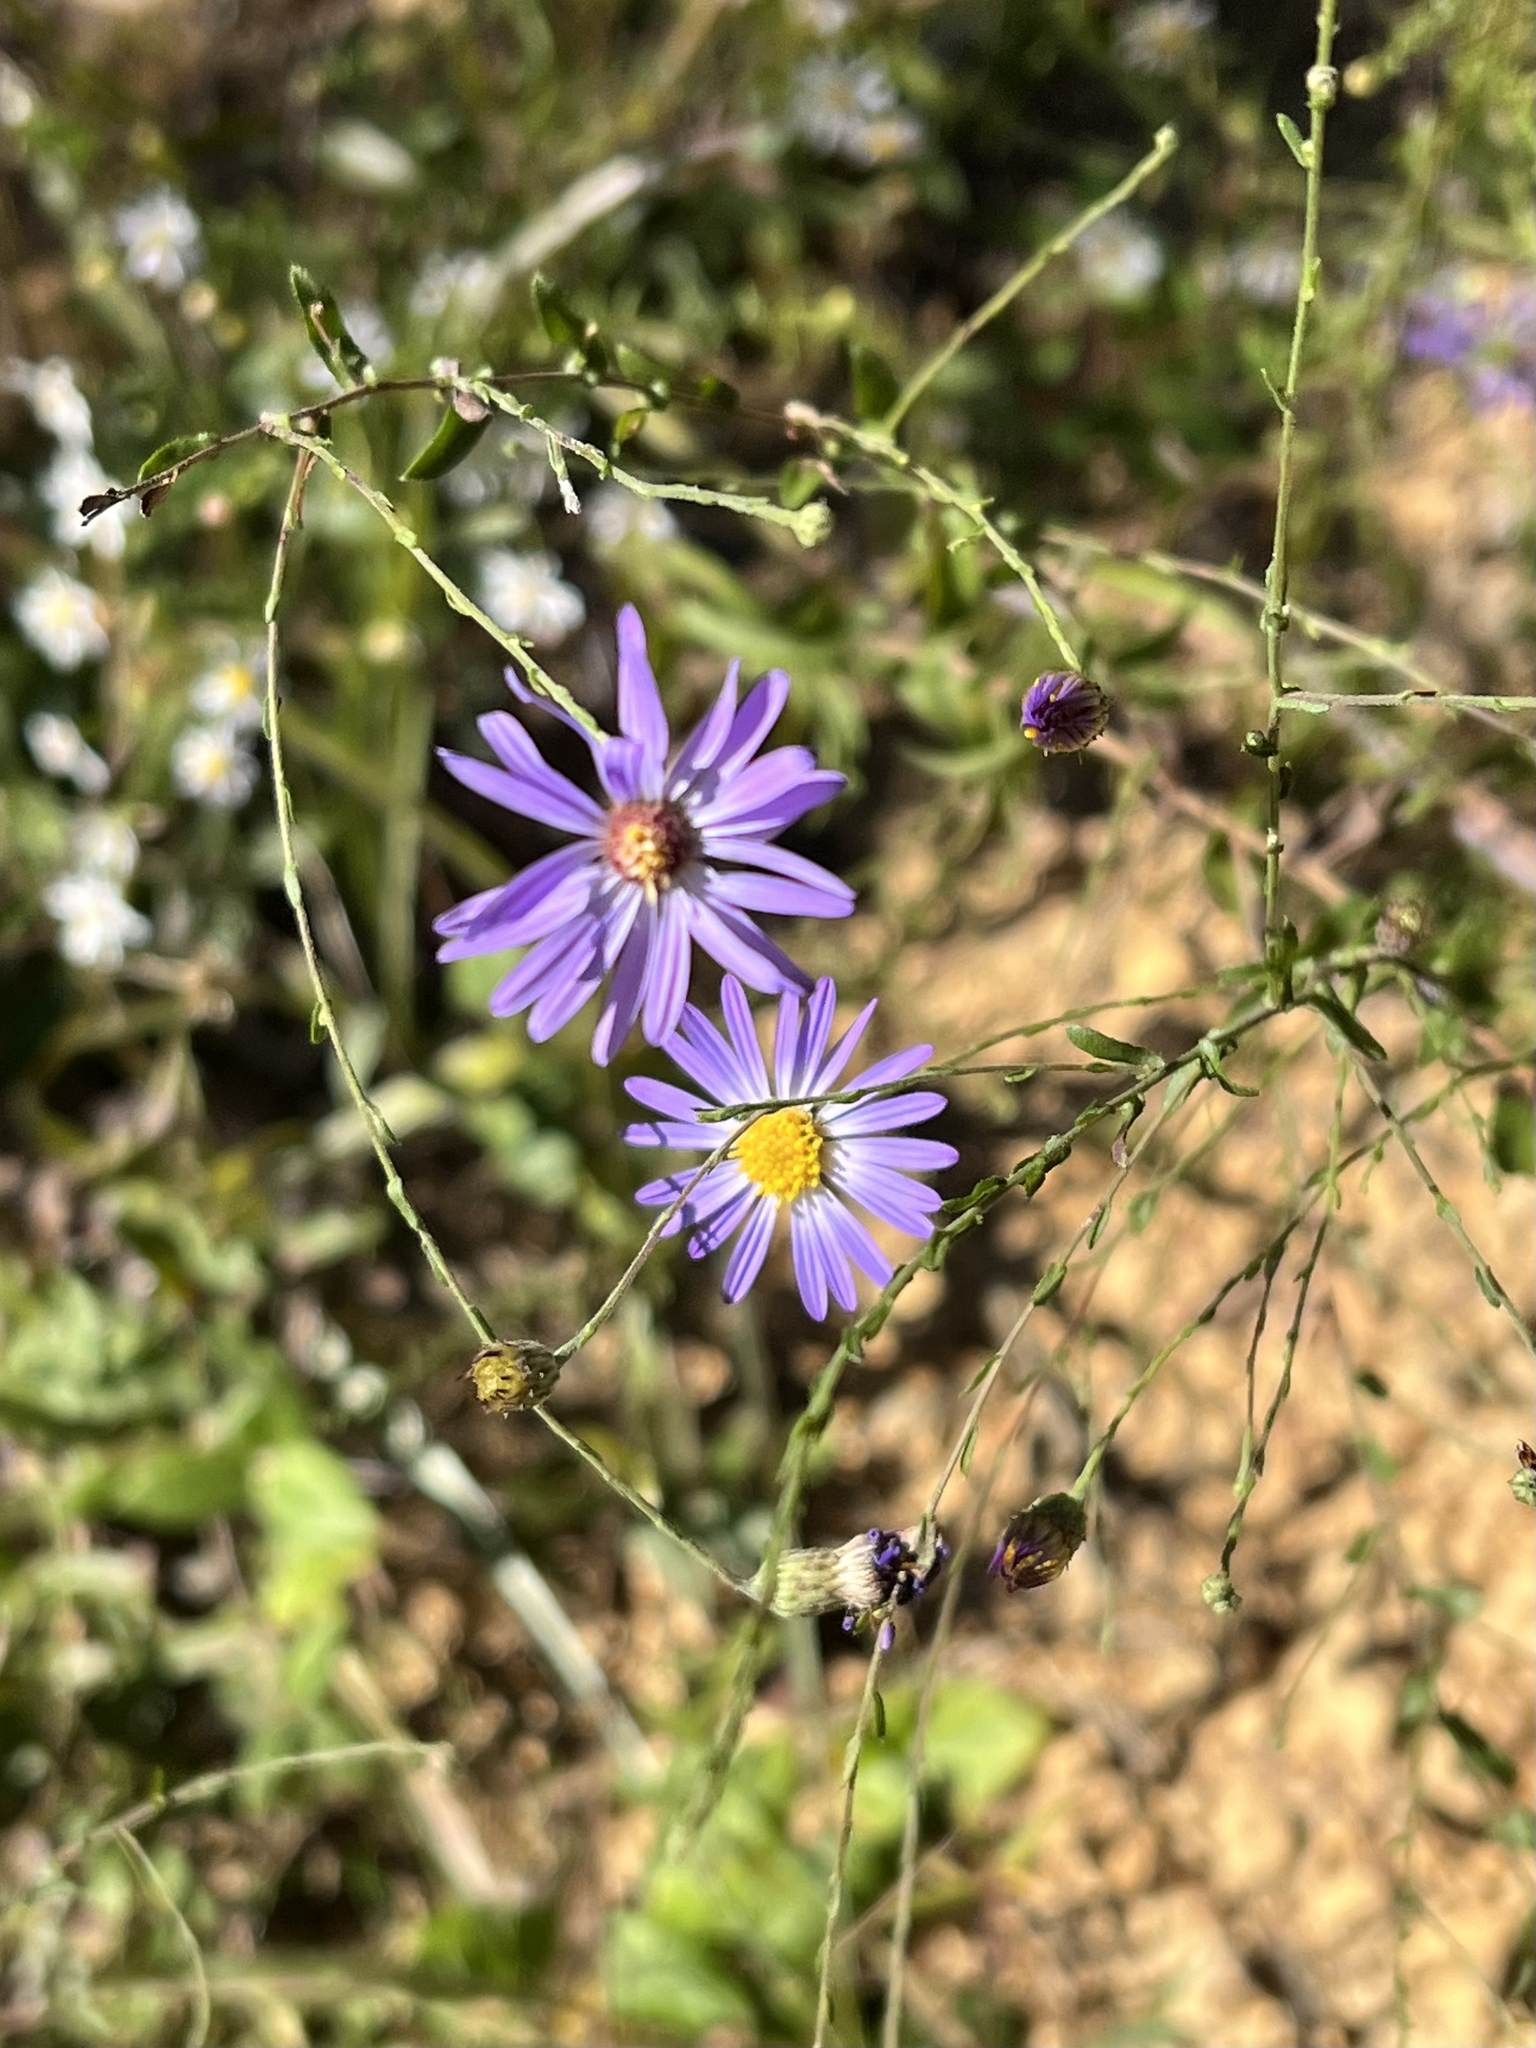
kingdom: Plantae
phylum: Tracheophyta
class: Magnoliopsida
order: Asterales
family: Asteraceae
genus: Symphyotrichum
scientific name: Symphyotrichum patens
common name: Late purple aster
